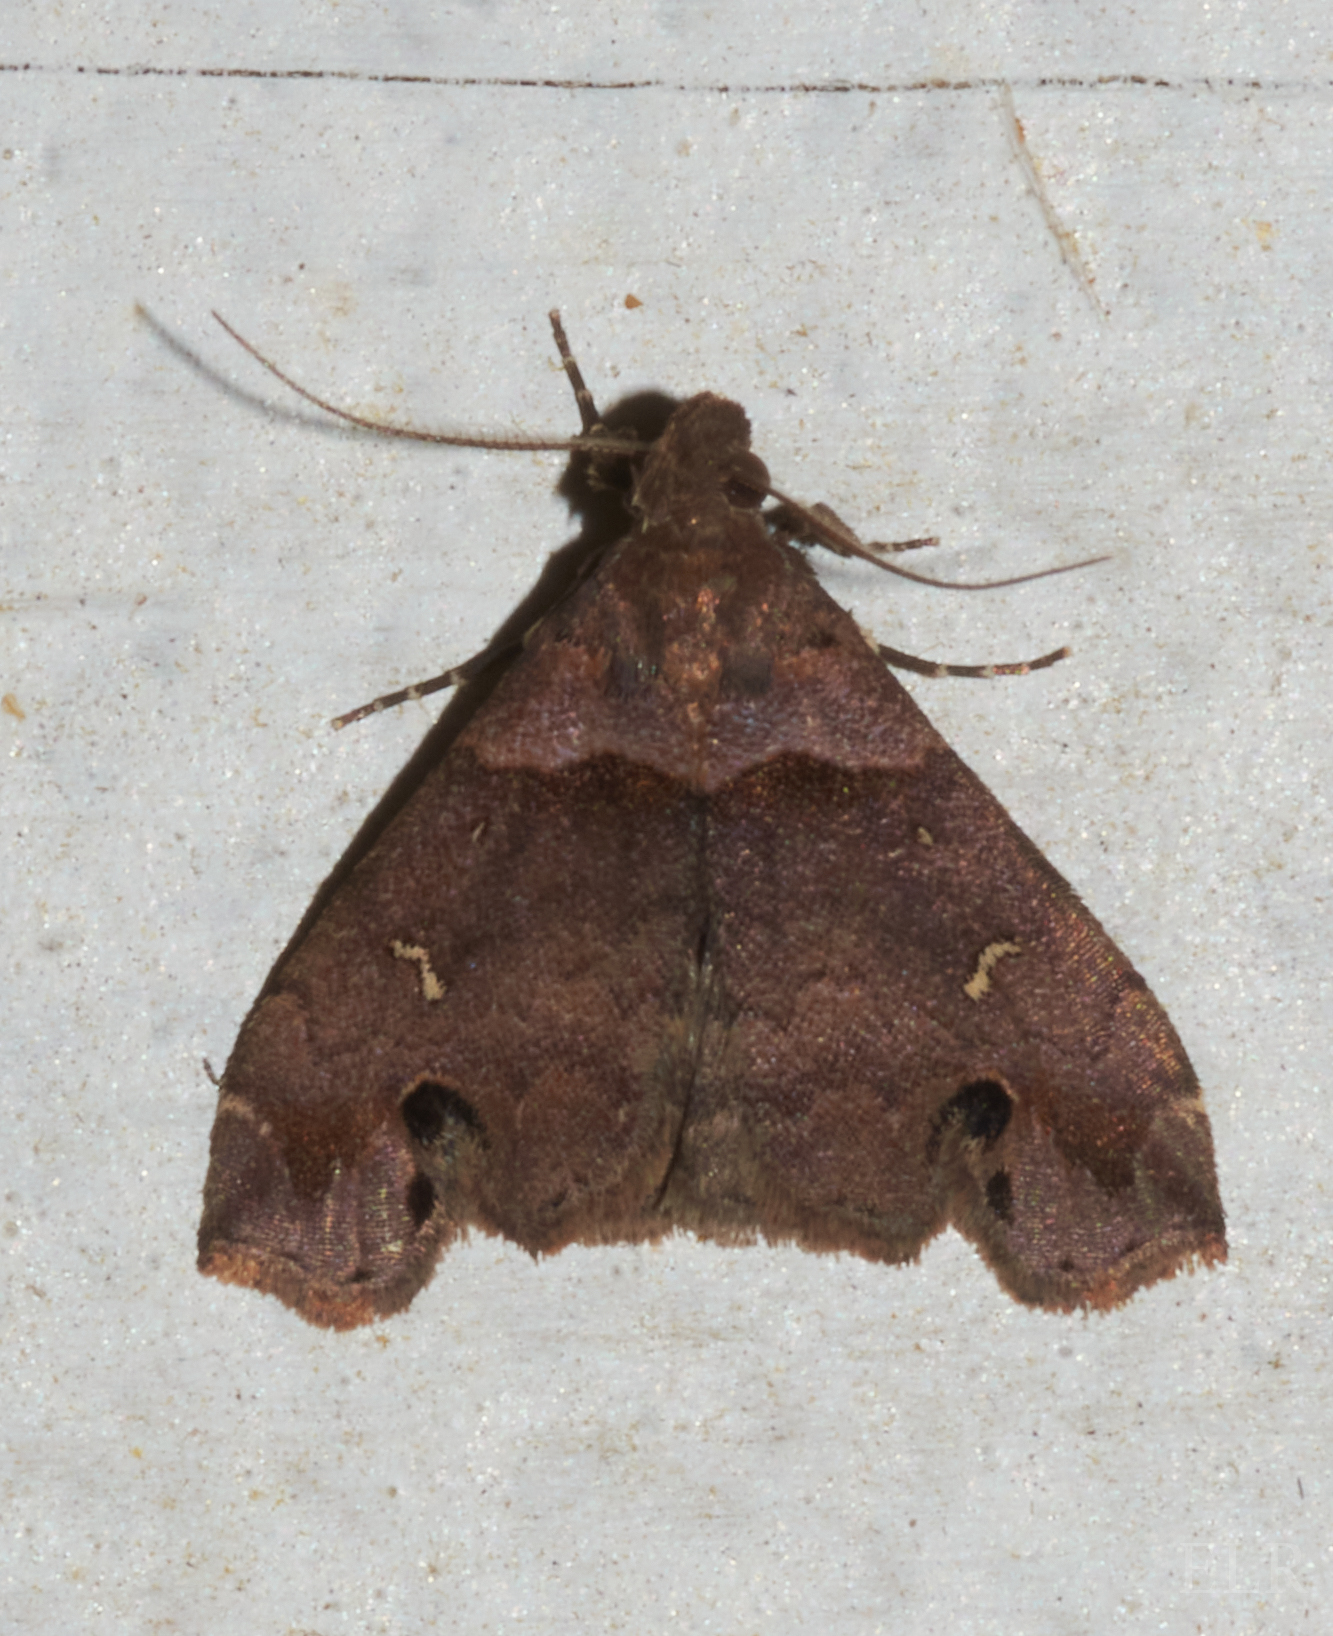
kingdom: Animalia
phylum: Arthropoda
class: Insecta
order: Lepidoptera
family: Erebidae
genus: Lascoria
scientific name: Lascoria ambigualis
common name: Ambiguous moth
